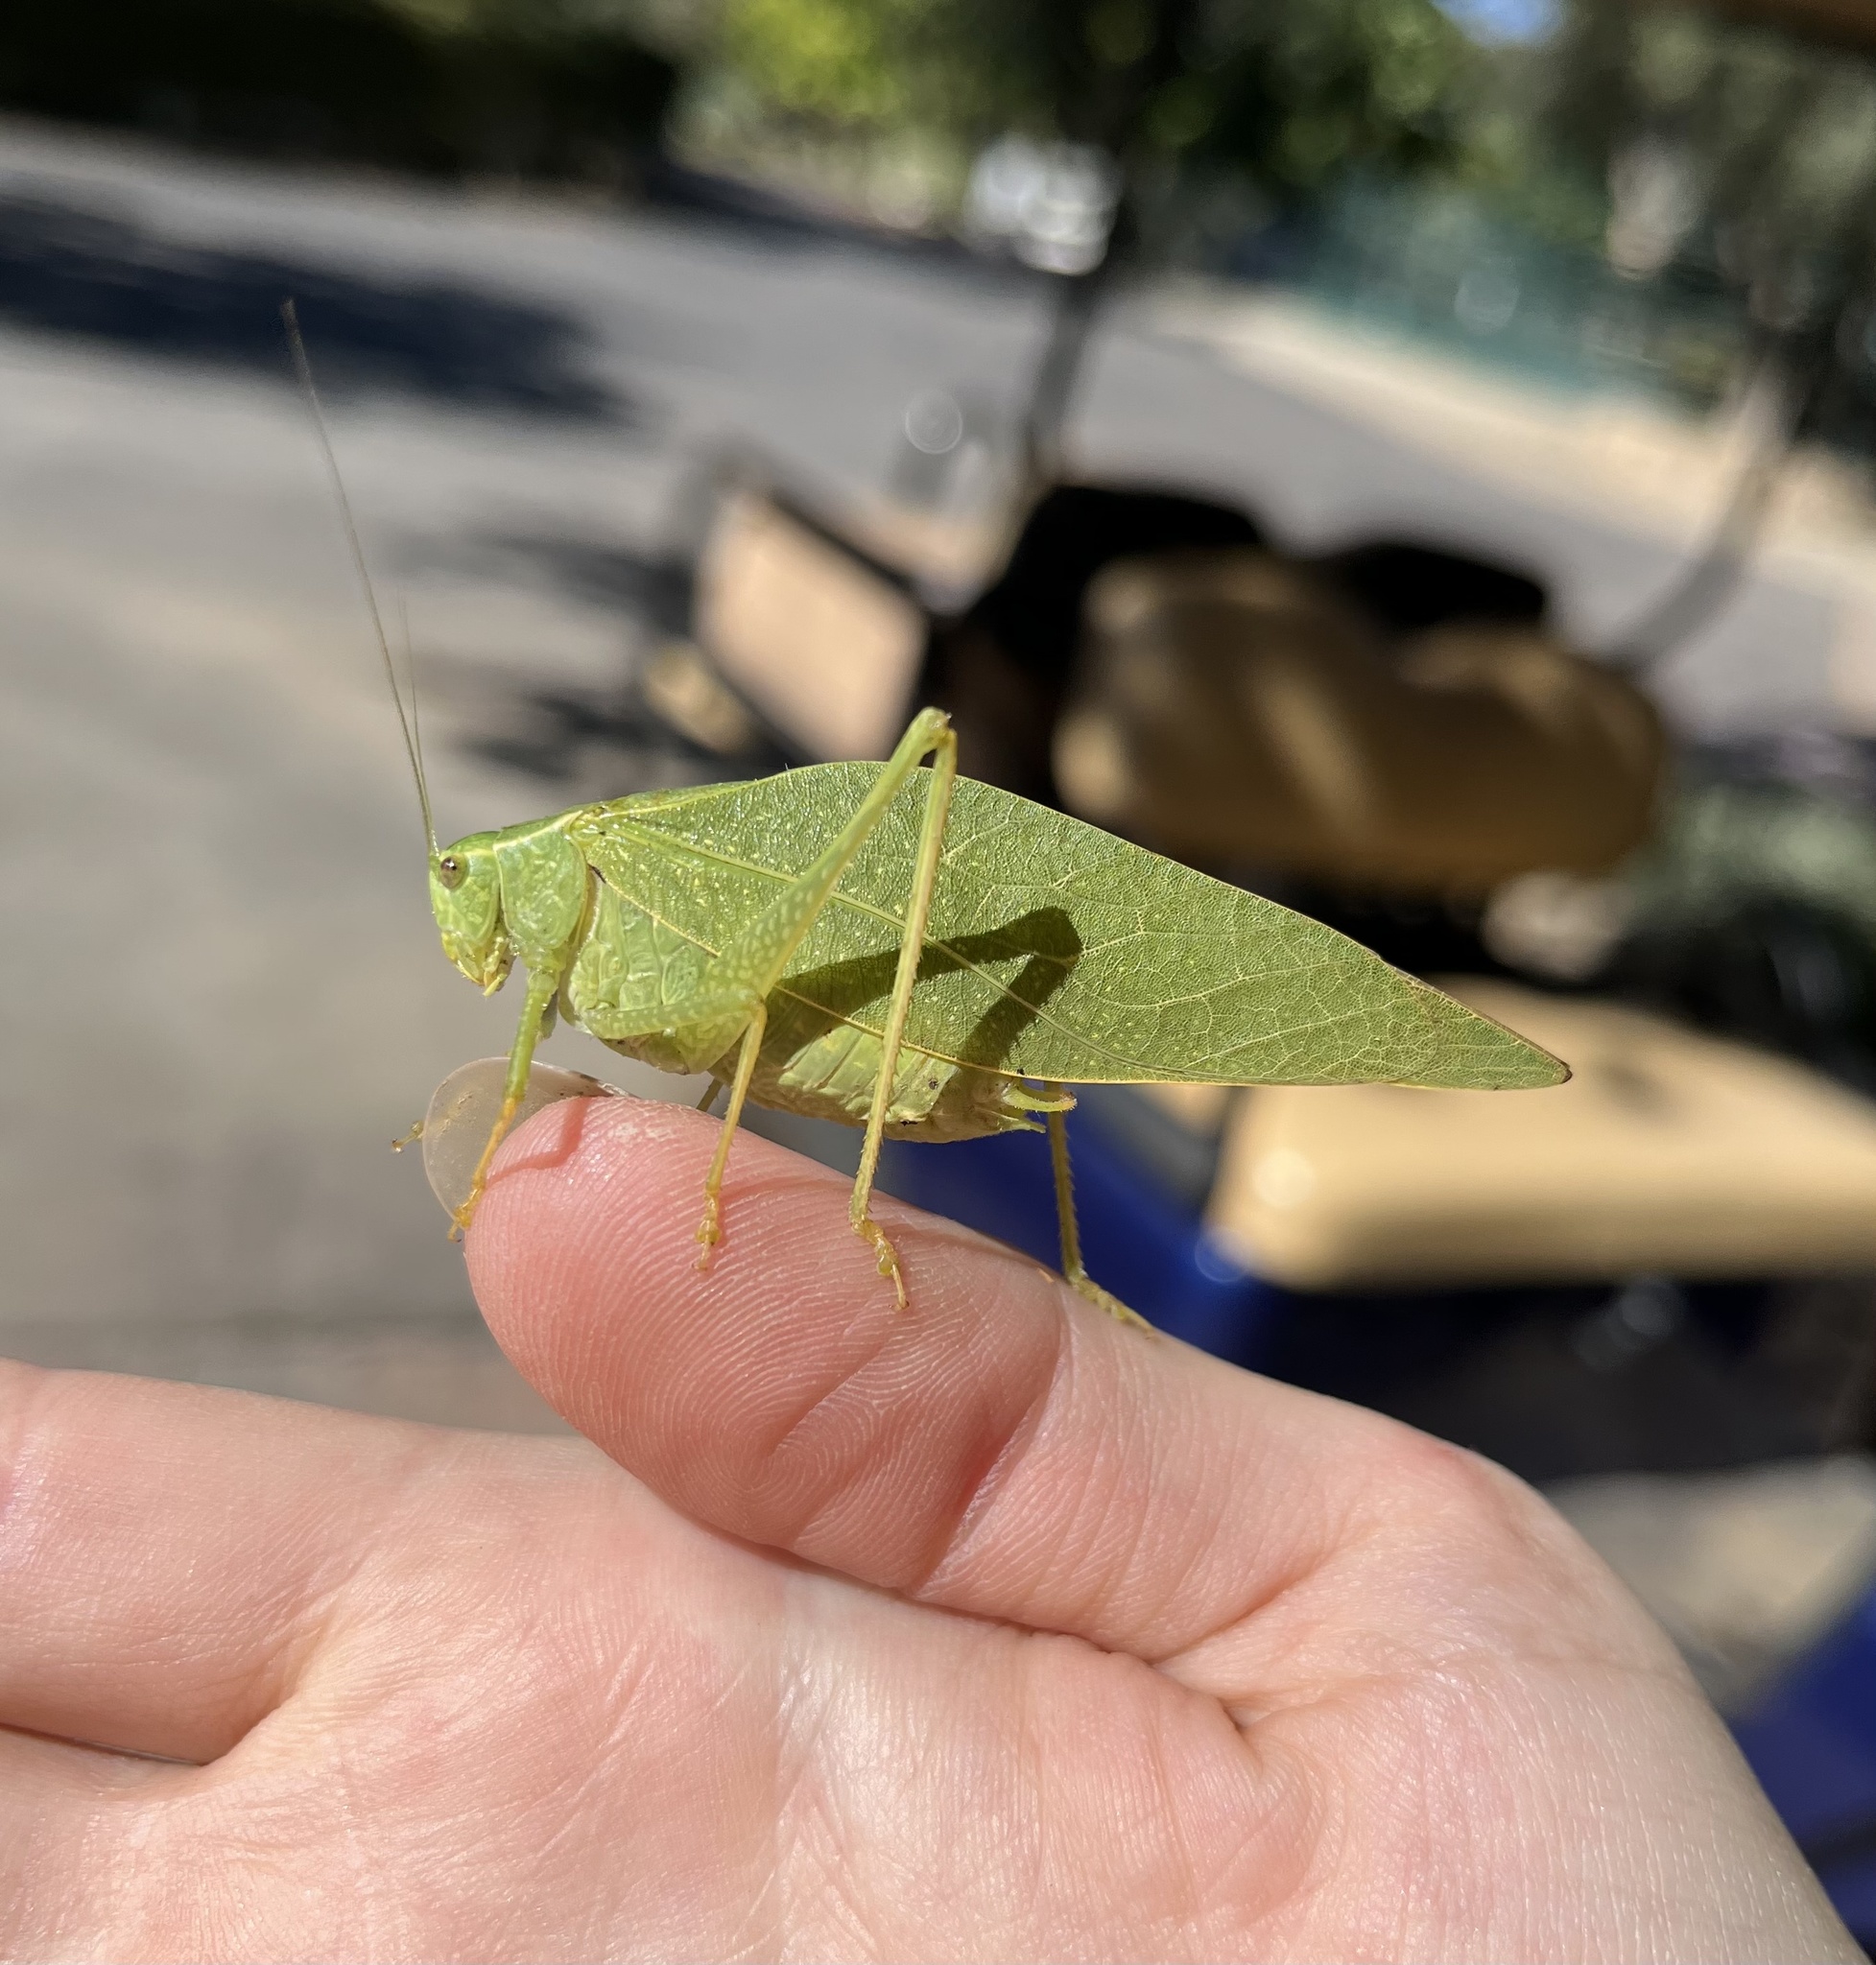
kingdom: Animalia
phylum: Arthropoda
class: Insecta
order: Orthoptera
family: Tettigoniidae
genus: Microcentrum
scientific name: Microcentrum rhombifolium
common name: Broad-winged katydid
